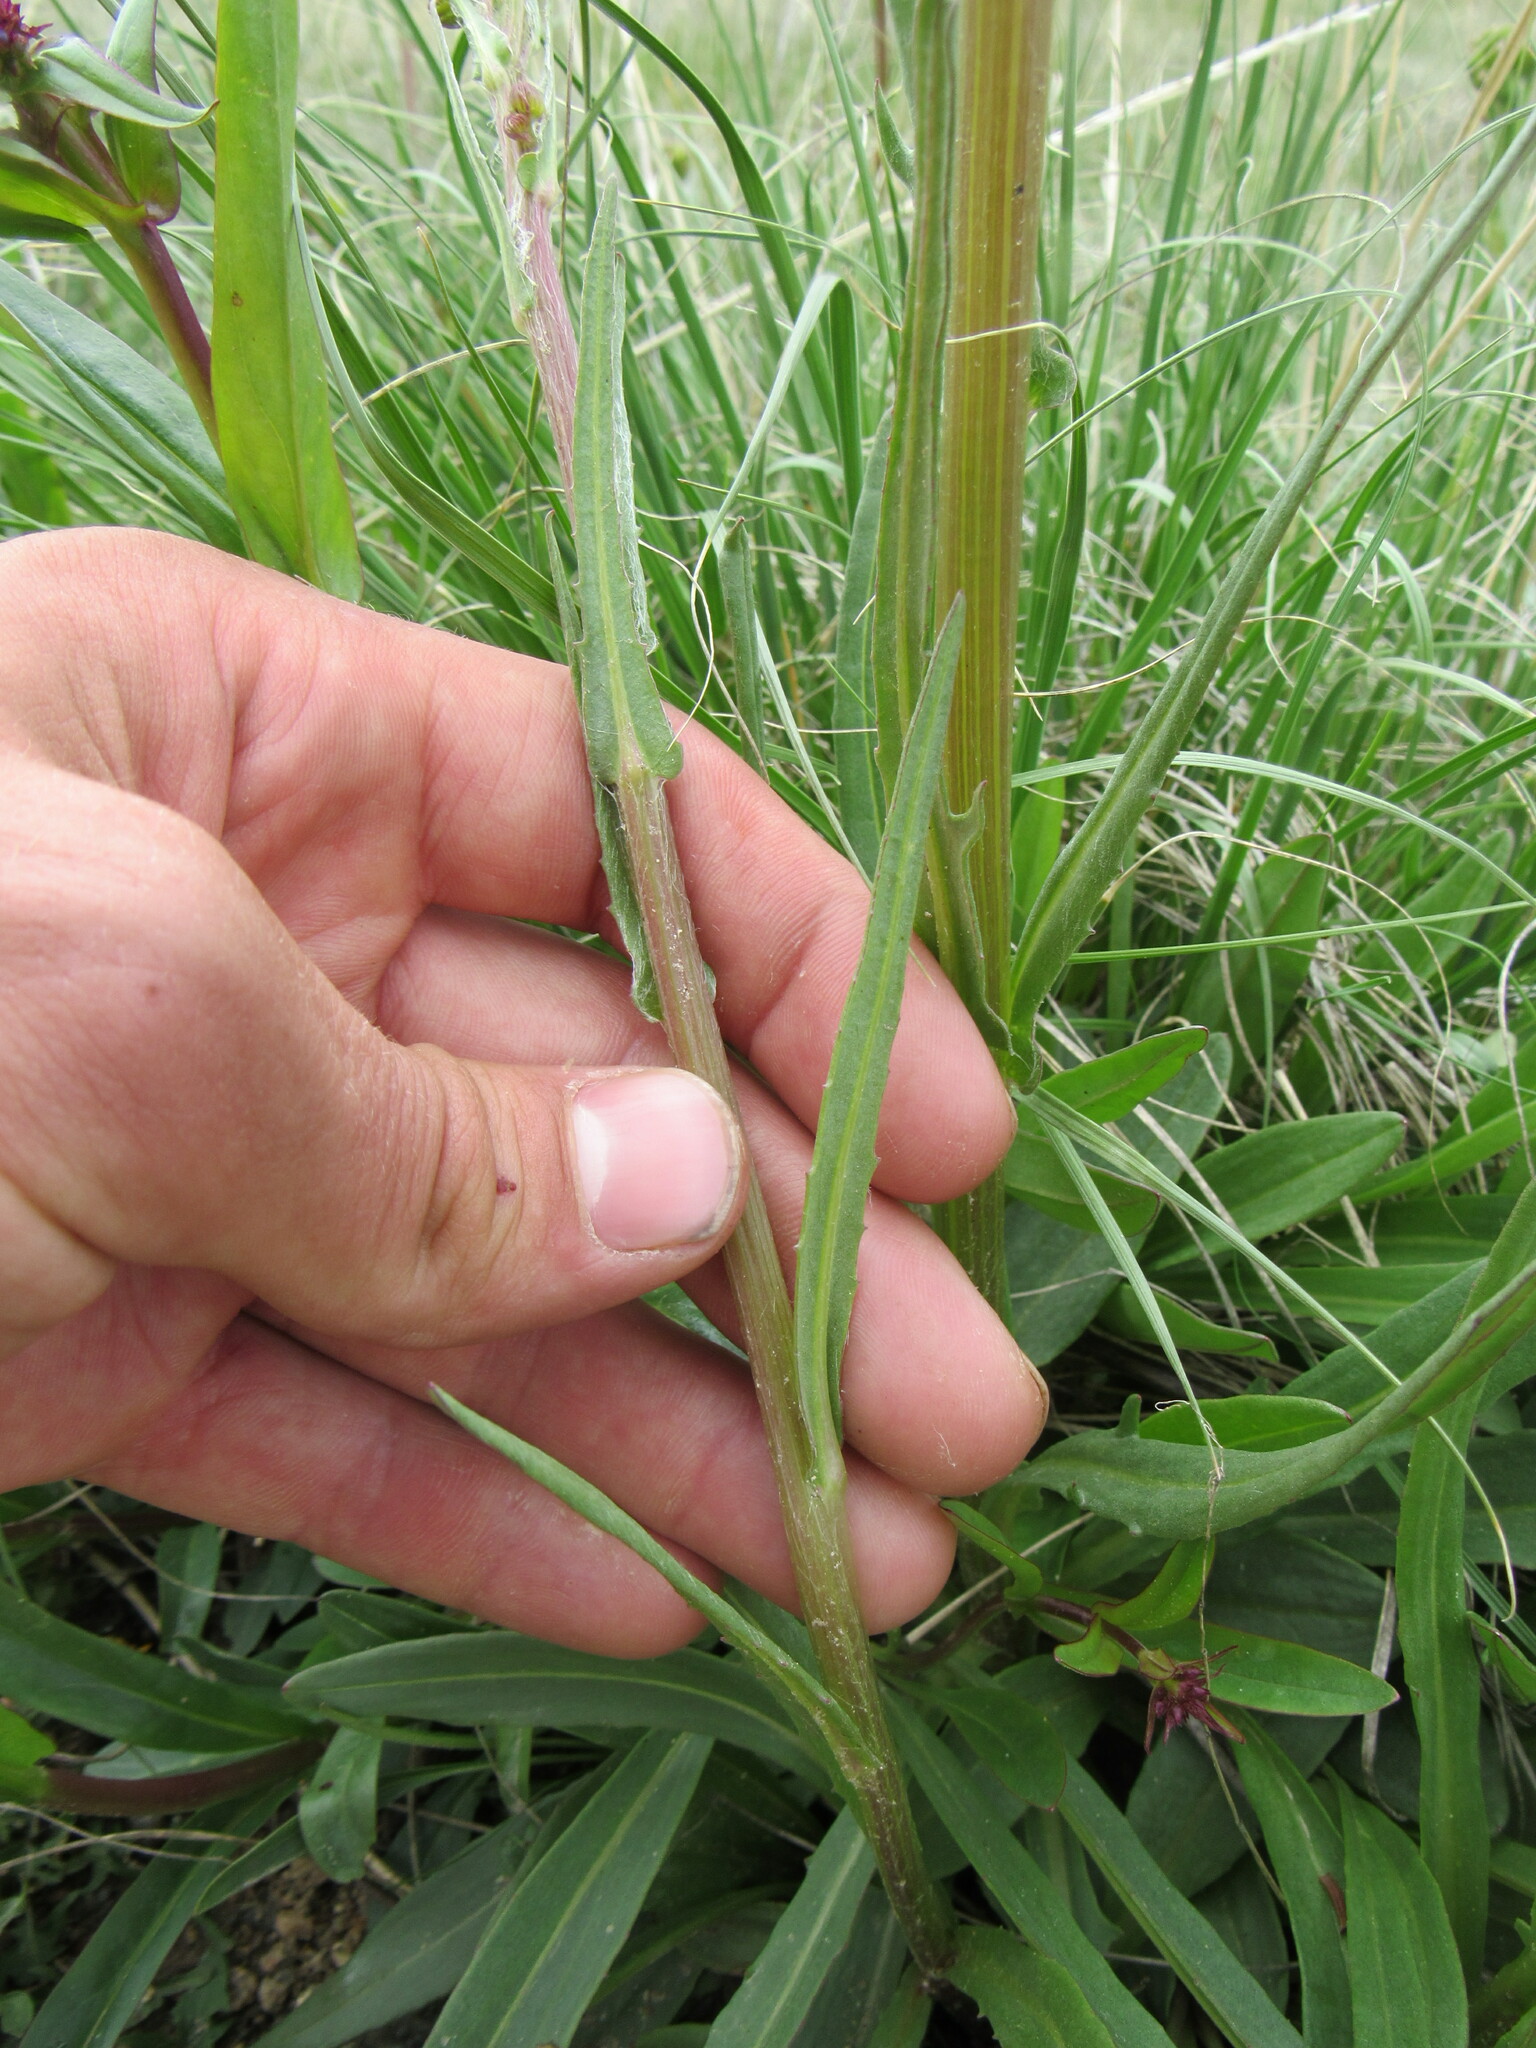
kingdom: Plantae
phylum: Tracheophyta
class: Magnoliopsida
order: Asterales
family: Asteraceae
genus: Senecio
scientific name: Senecio integerrimus
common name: Gaugeplant
